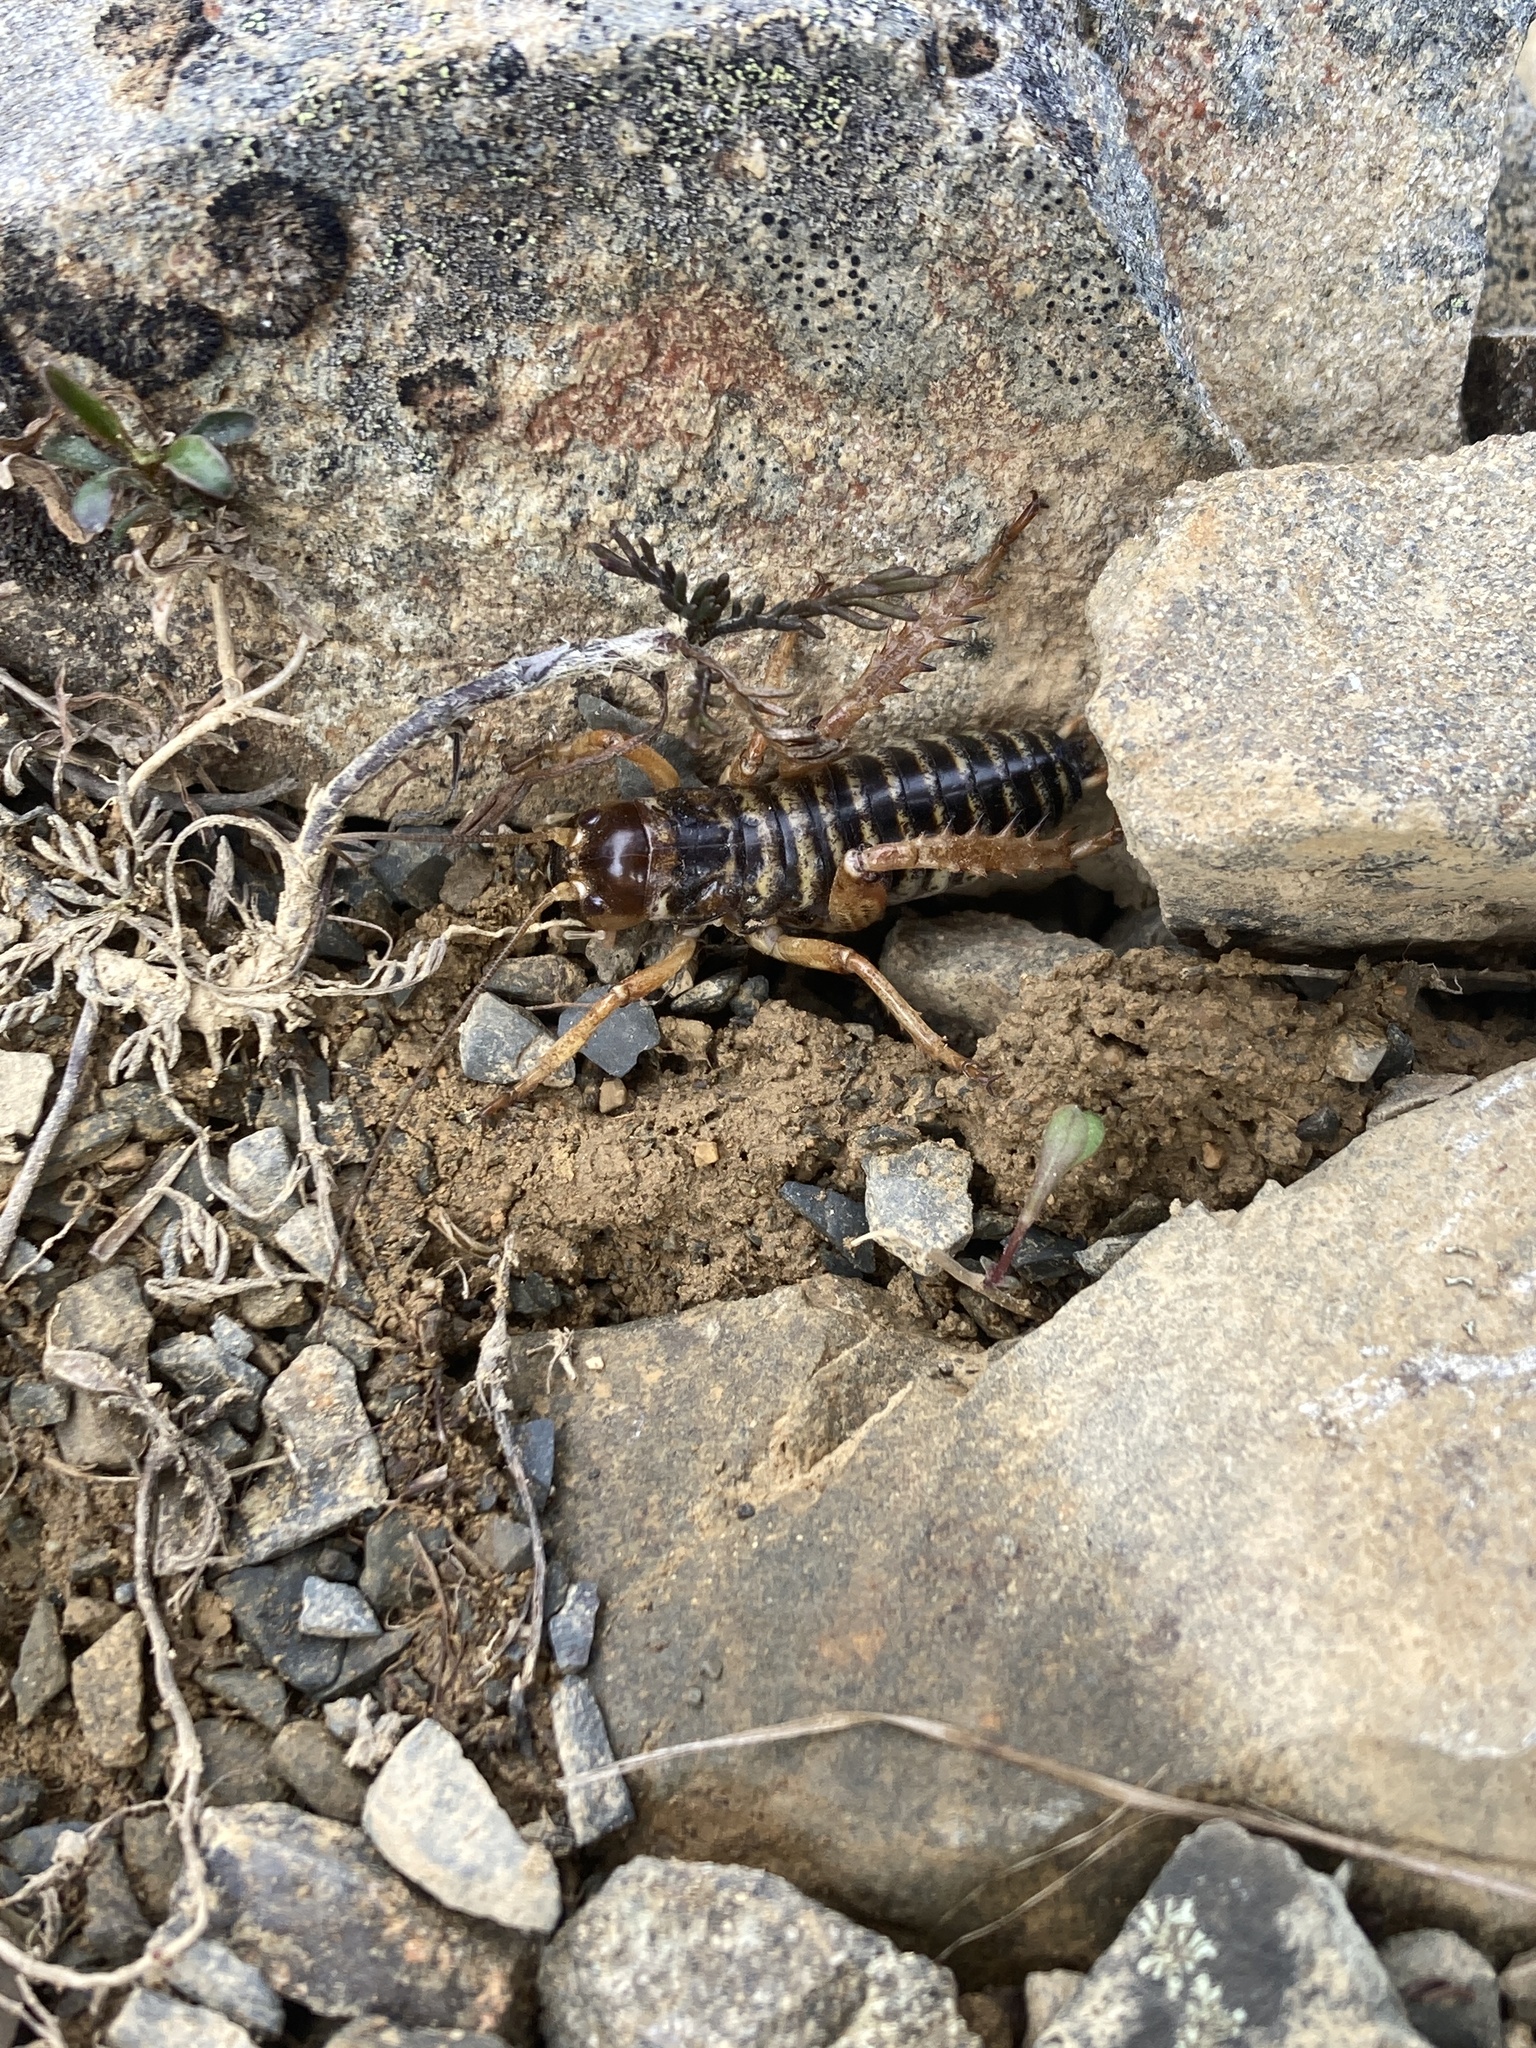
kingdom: Animalia
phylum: Arthropoda
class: Insecta
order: Orthoptera
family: Anostostomatidae
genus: Hemideina
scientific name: Hemideina maori
